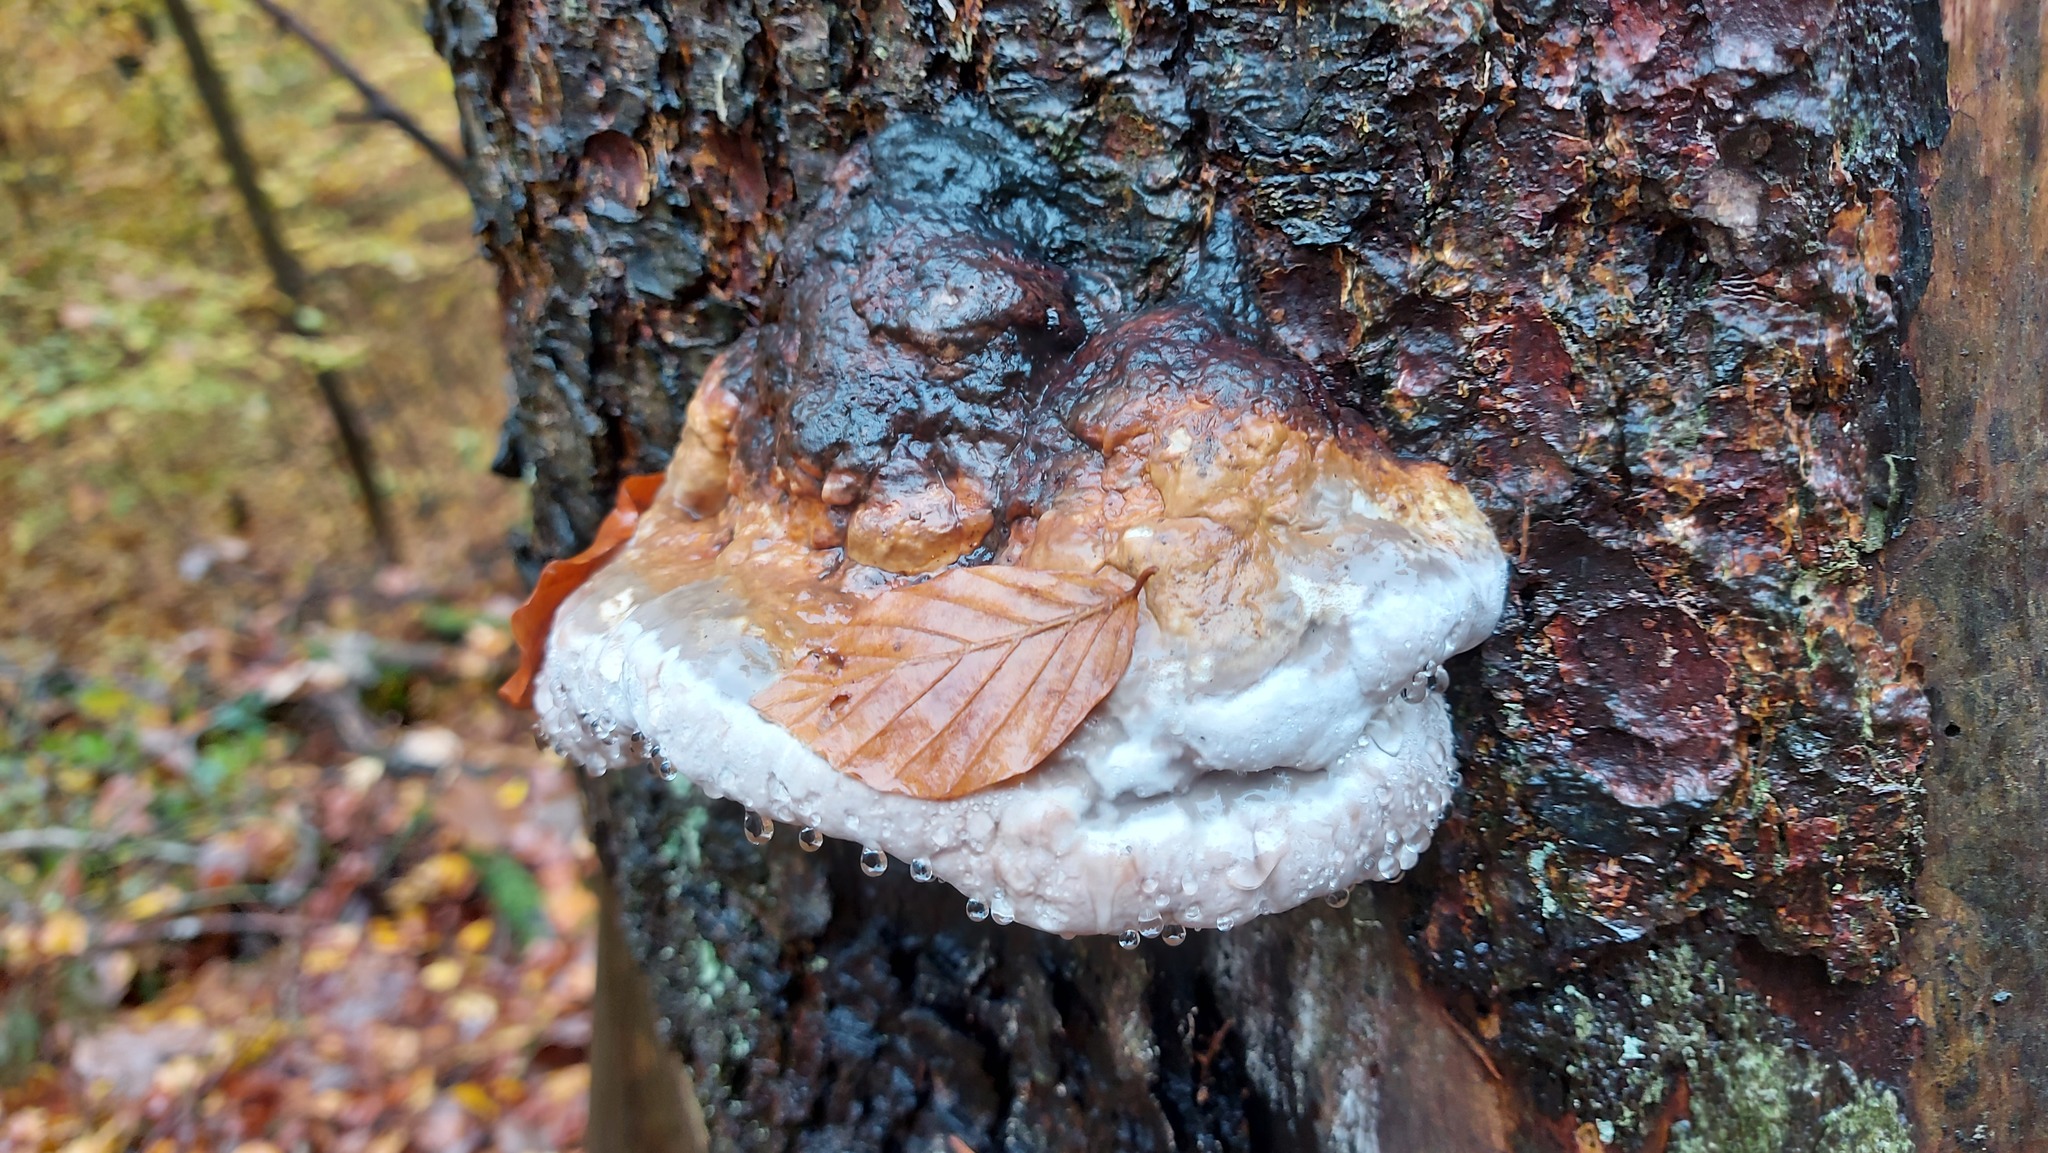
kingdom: Fungi
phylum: Basidiomycota
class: Agaricomycetes
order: Polyporales
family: Fomitopsidaceae
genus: Fomitopsis
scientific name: Fomitopsis pinicola
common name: Red-belted bracket
